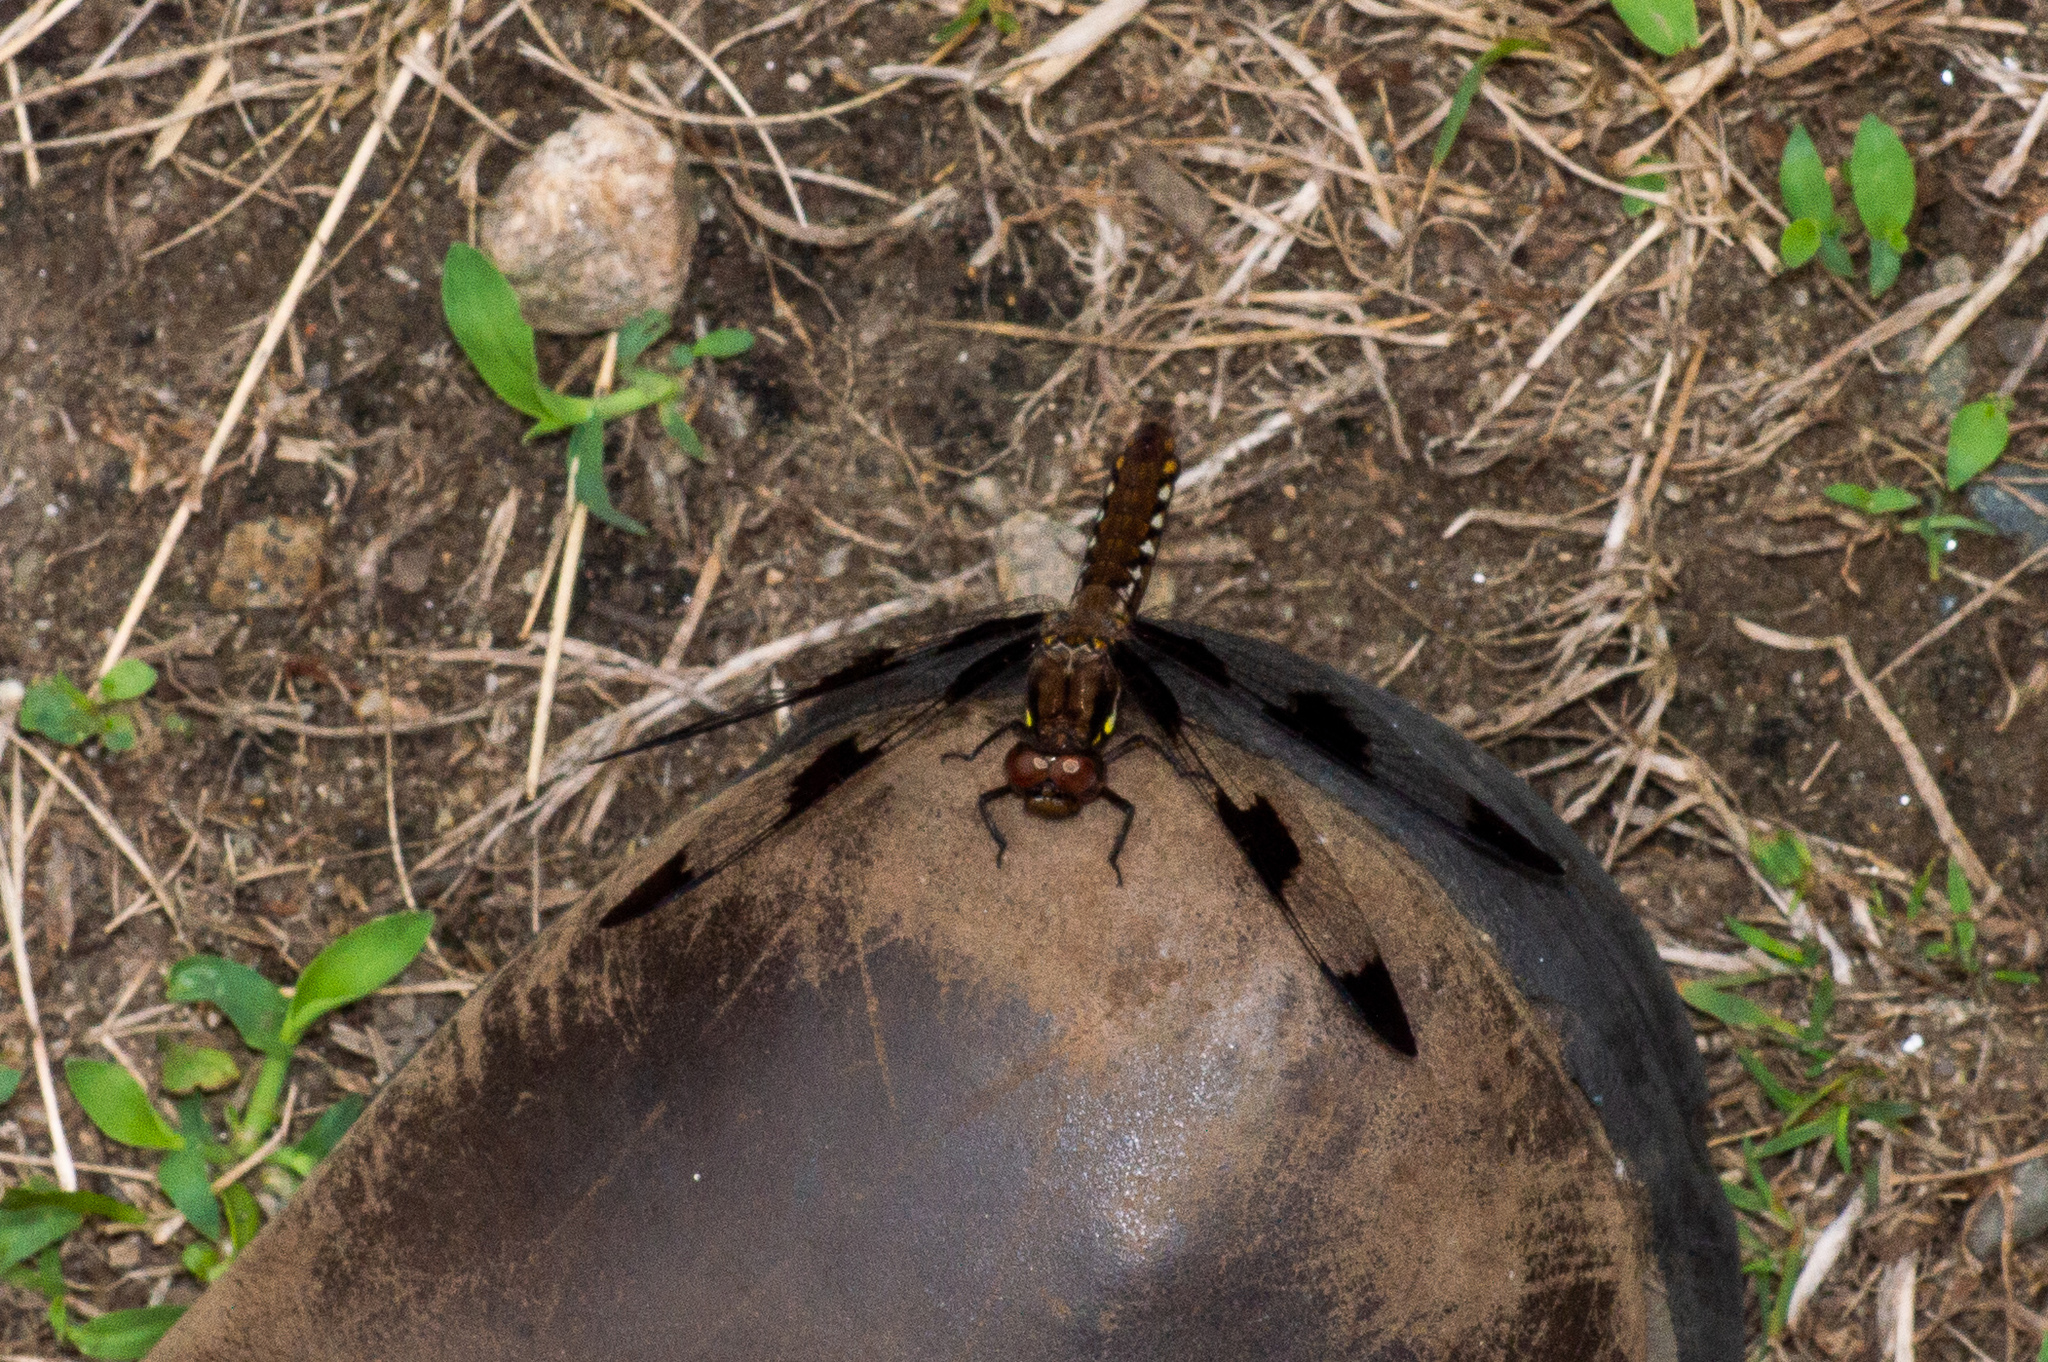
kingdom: Animalia
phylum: Arthropoda
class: Insecta
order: Odonata
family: Libellulidae
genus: Plathemis
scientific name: Plathemis lydia
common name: Common whitetail
